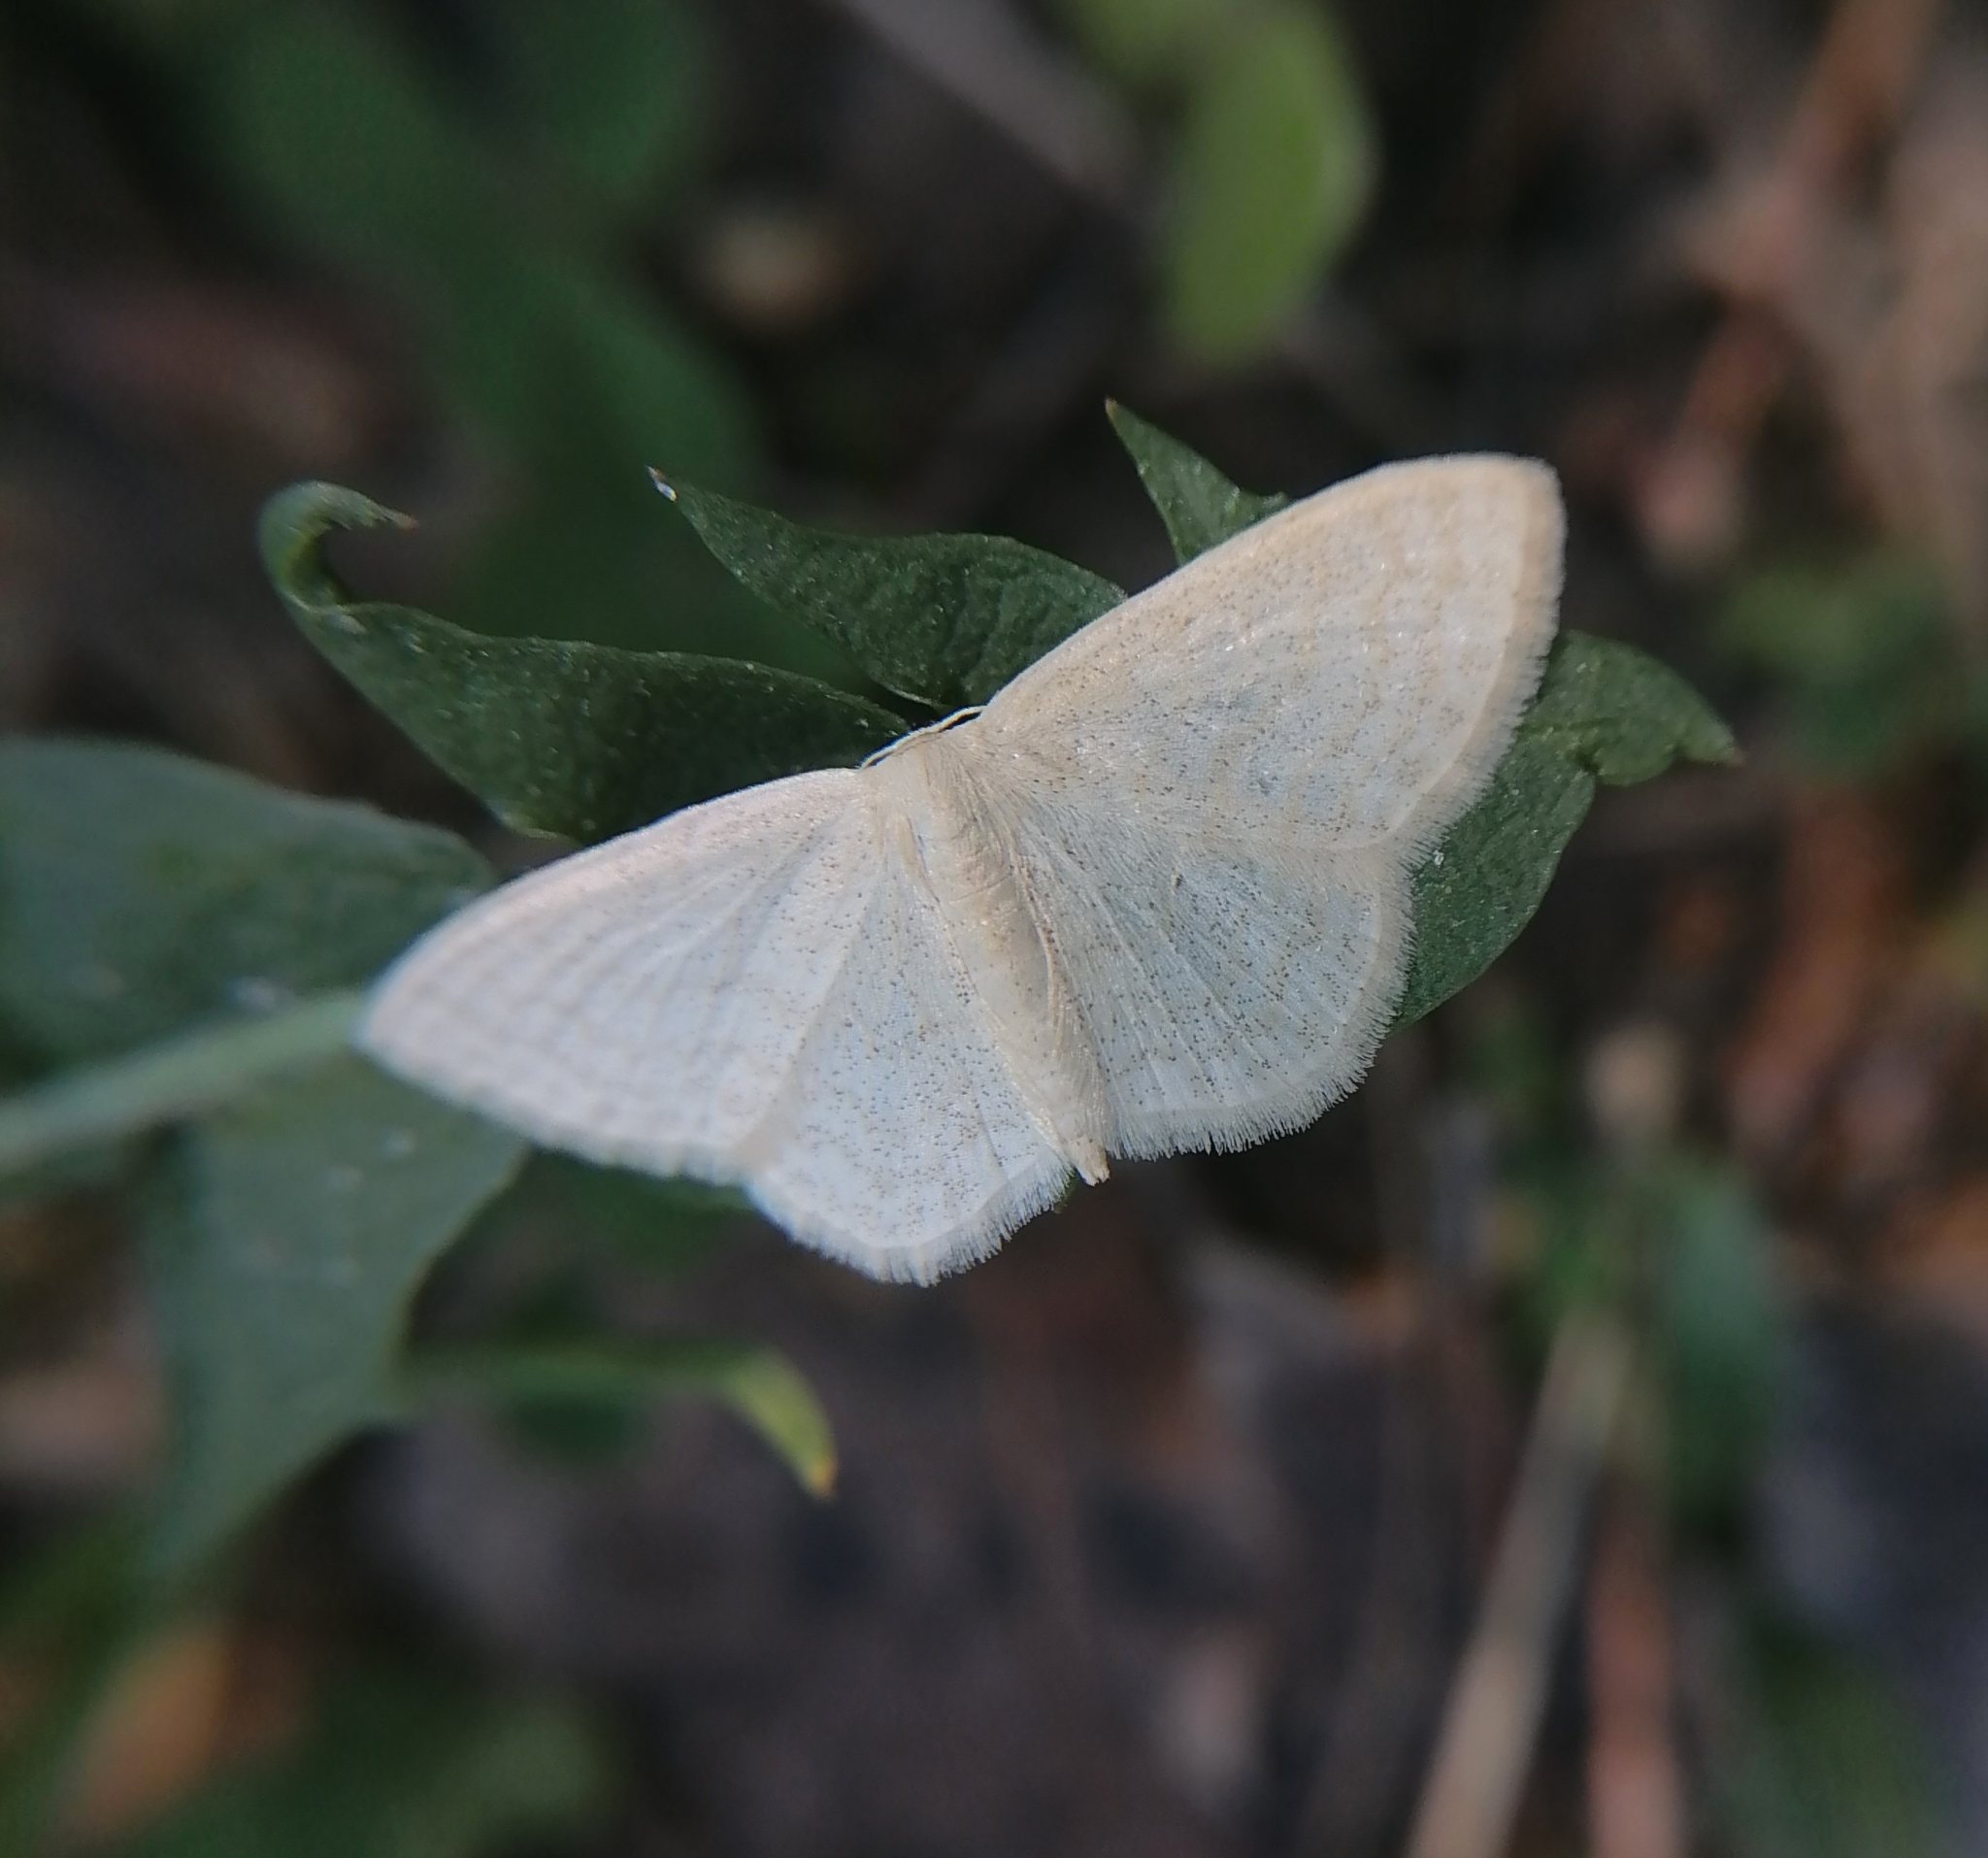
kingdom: Animalia
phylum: Arthropoda
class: Insecta
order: Lepidoptera
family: Geometridae
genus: Scopula
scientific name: Scopula floslactata
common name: Cream wave
